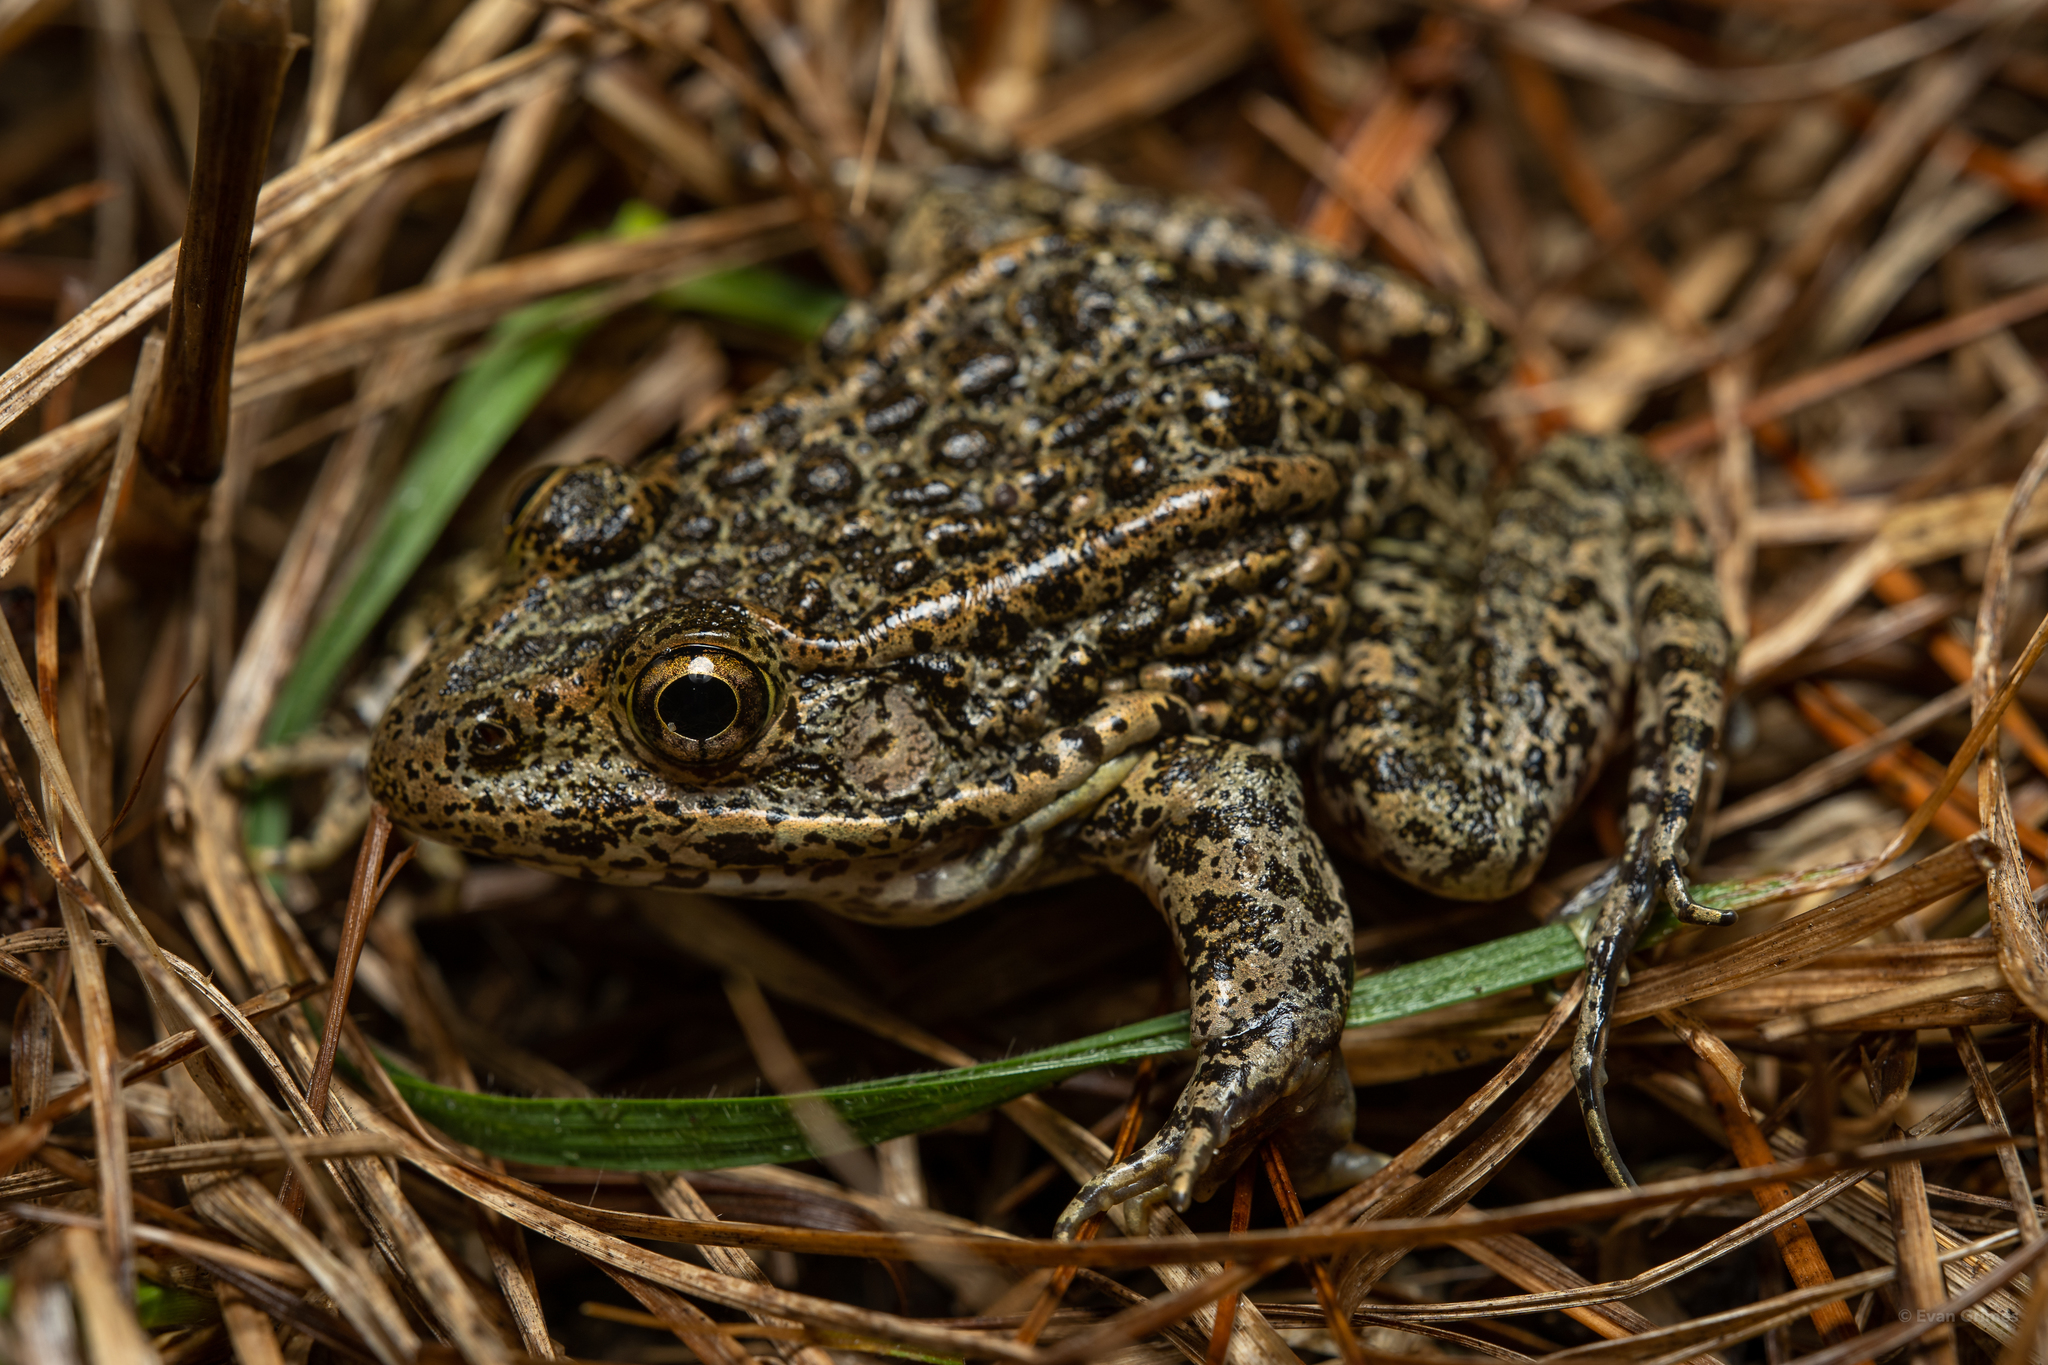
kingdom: Animalia
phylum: Chordata
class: Amphibia
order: Anura
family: Ranidae
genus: Lithobates
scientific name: Lithobates sevosus
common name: Dusky gopher frog
